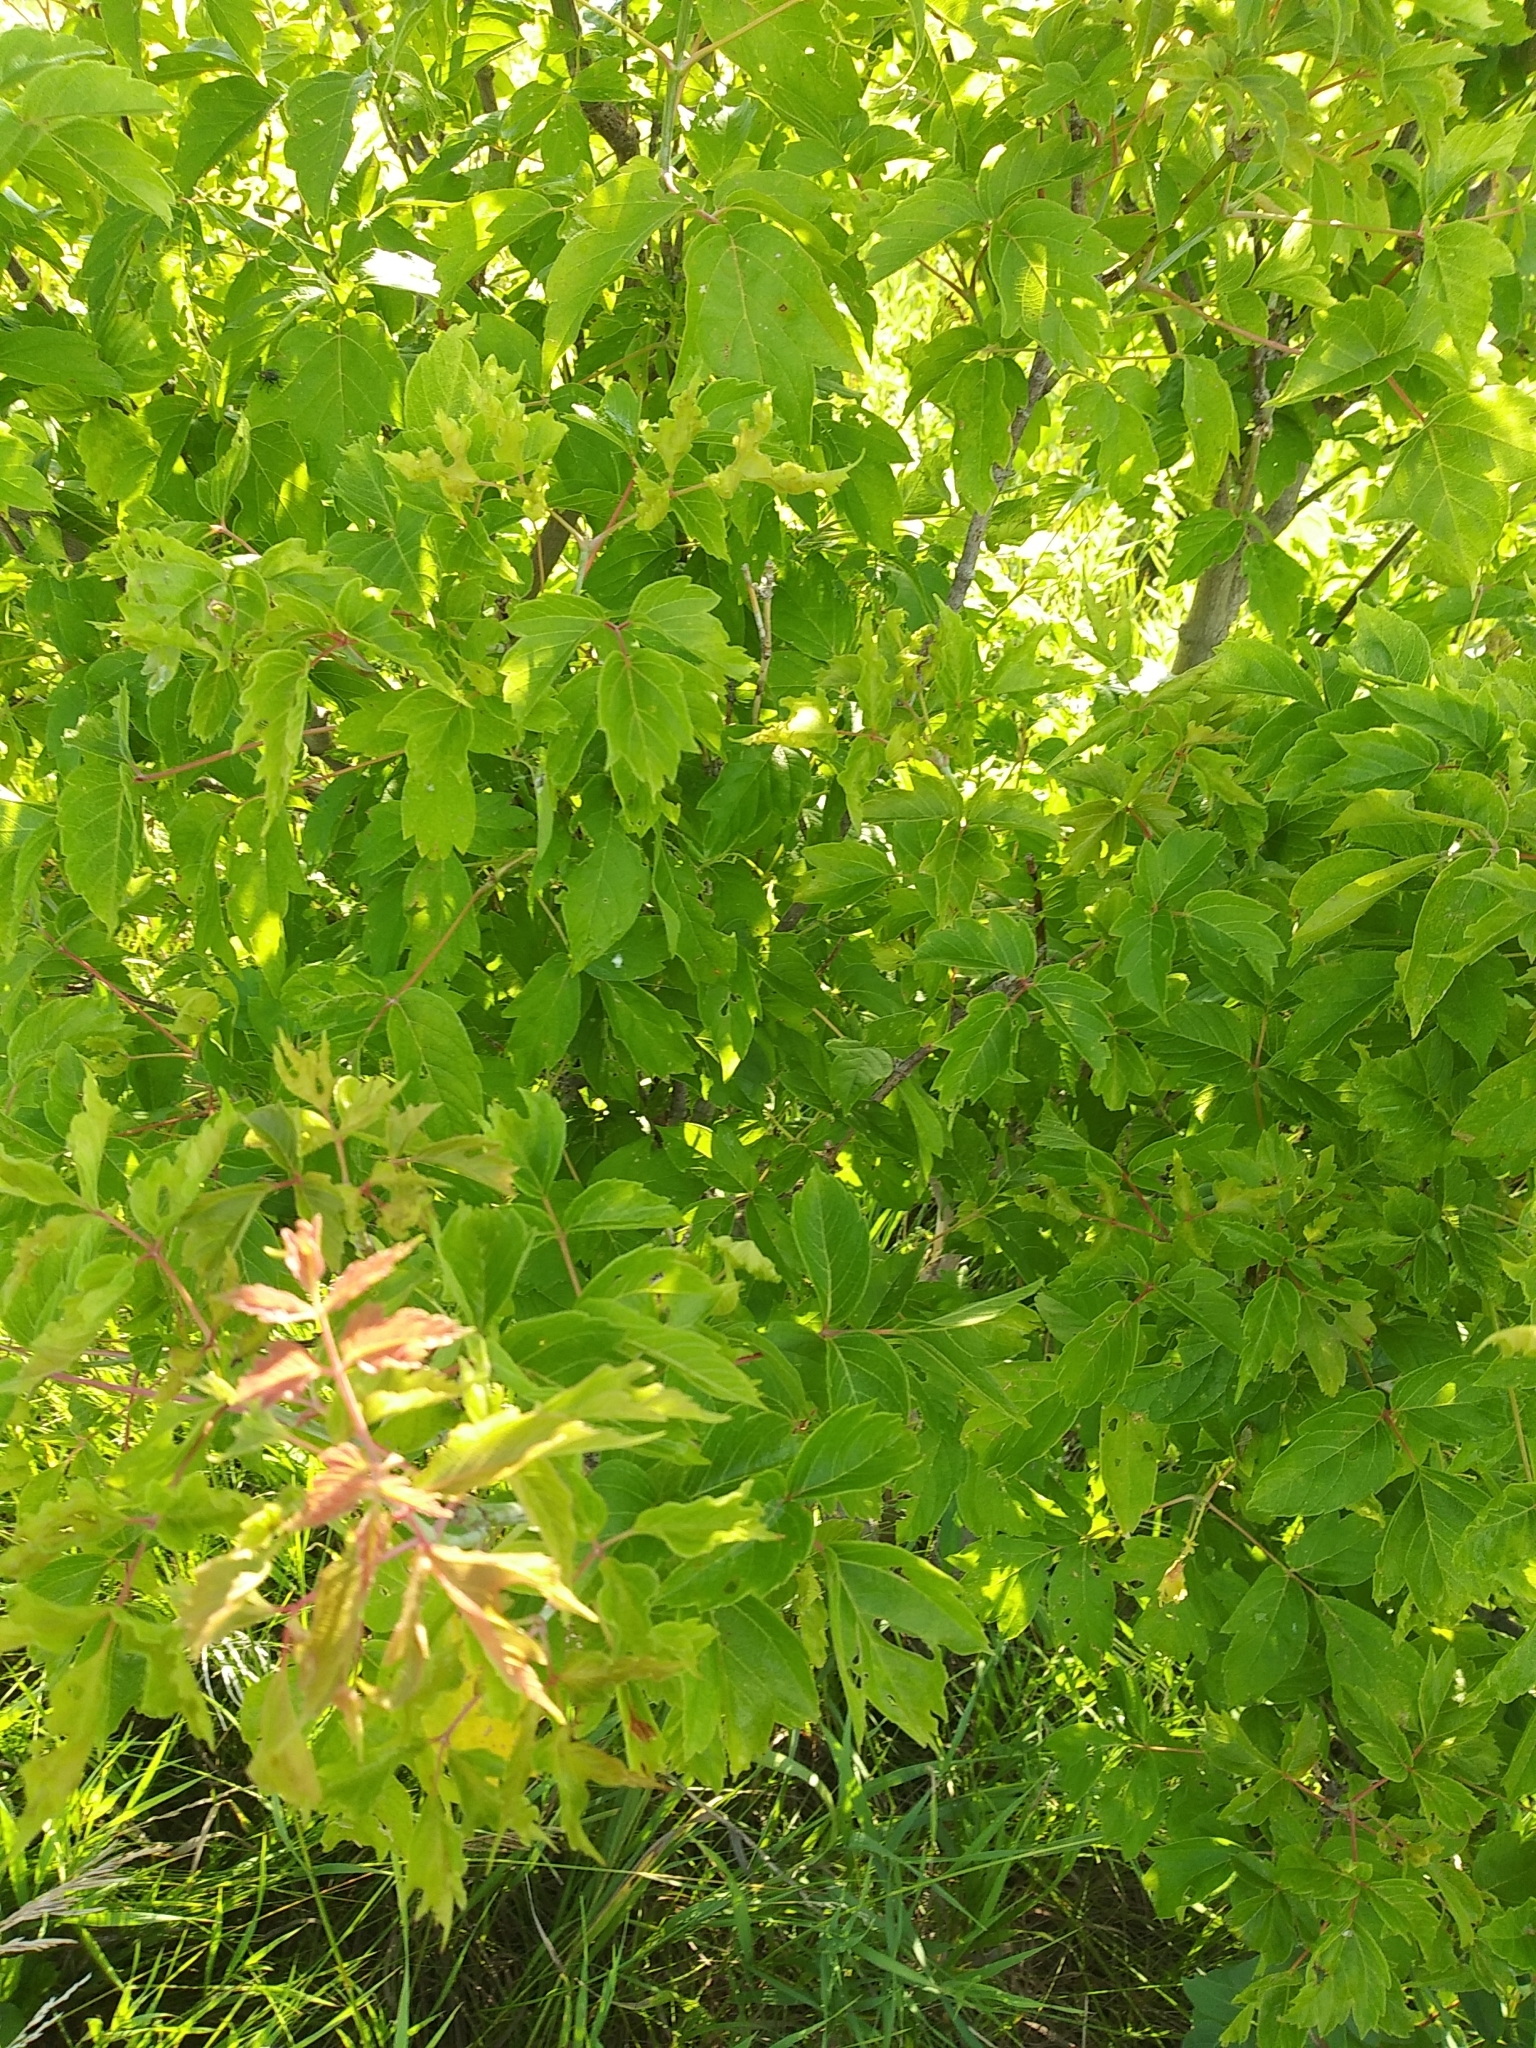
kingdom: Plantae
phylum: Tracheophyta
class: Magnoliopsida
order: Sapindales
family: Sapindaceae
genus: Acer
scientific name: Acer negundo
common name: Ashleaf maple
